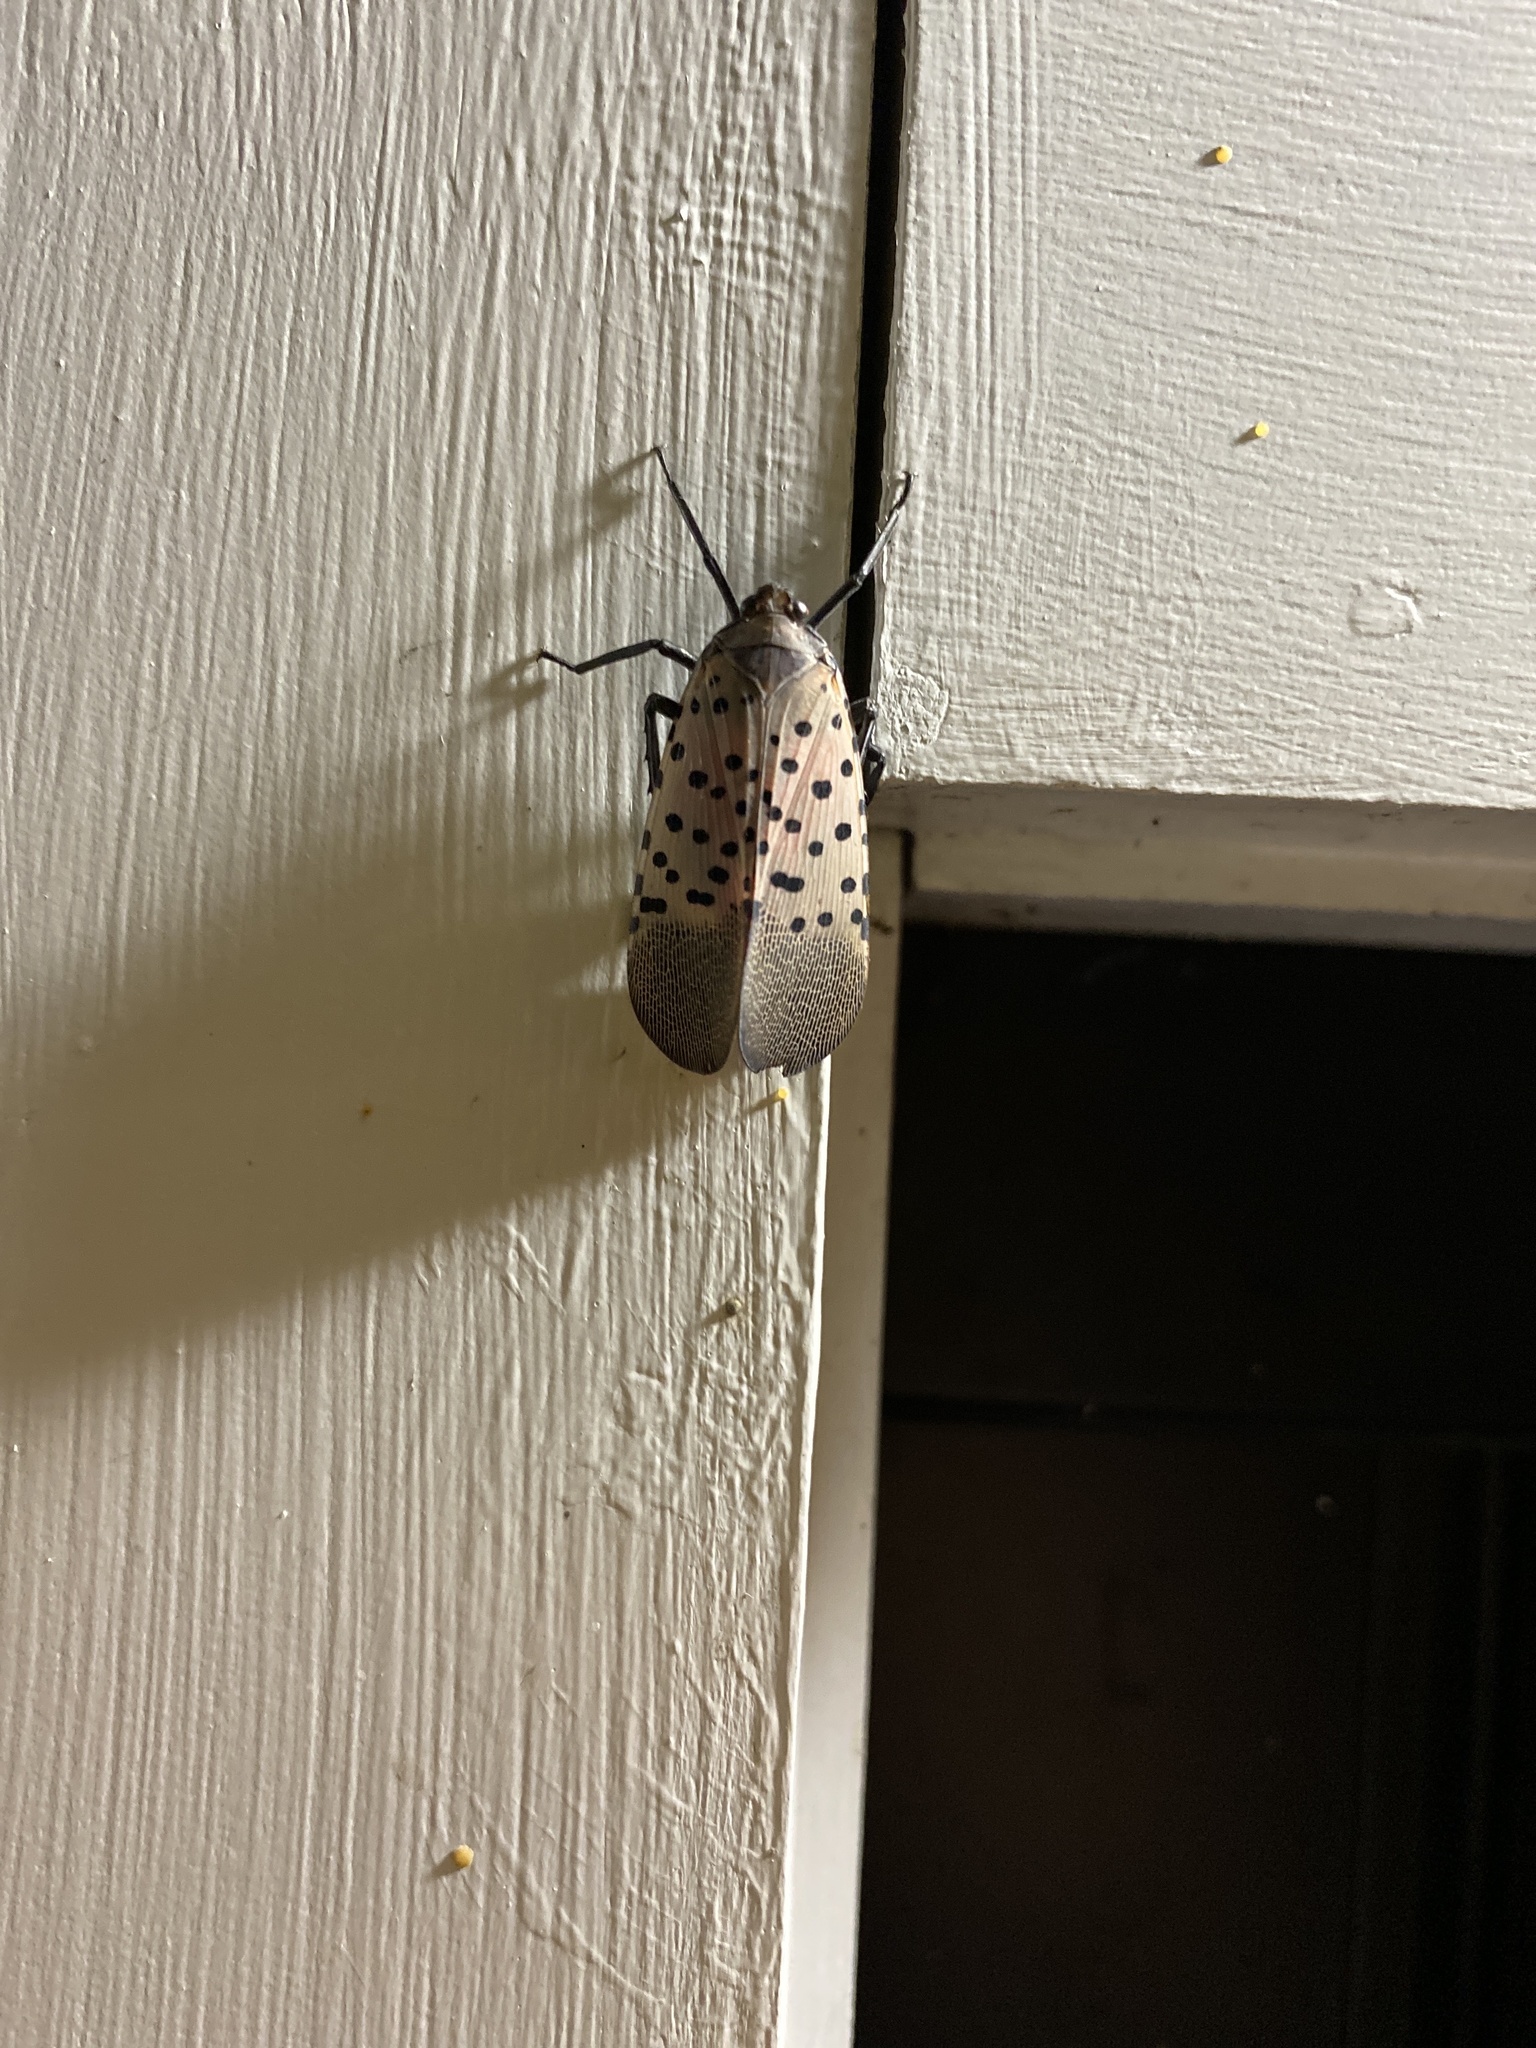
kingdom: Animalia
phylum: Arthropoda
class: Insecta
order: Hemiptera
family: Fulgoridae
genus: Lycorma
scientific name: Lycorma delicatula
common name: Spotted lanternfly
